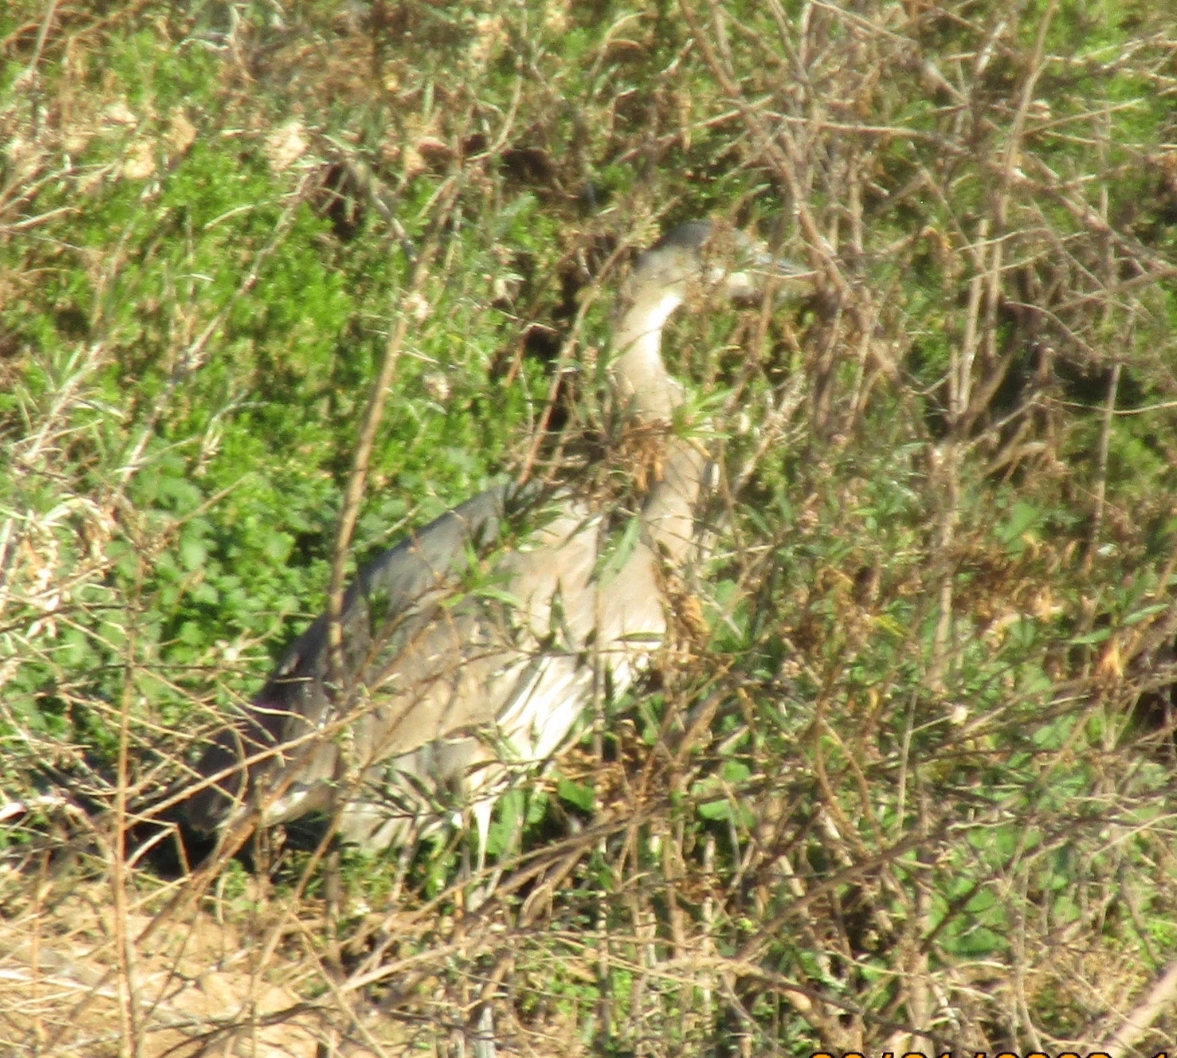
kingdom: Animalia
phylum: Chordata
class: Aves
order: Pelecaniformes
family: Ardeidae
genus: Ardea
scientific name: Ardea herodias
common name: Great blue heron
